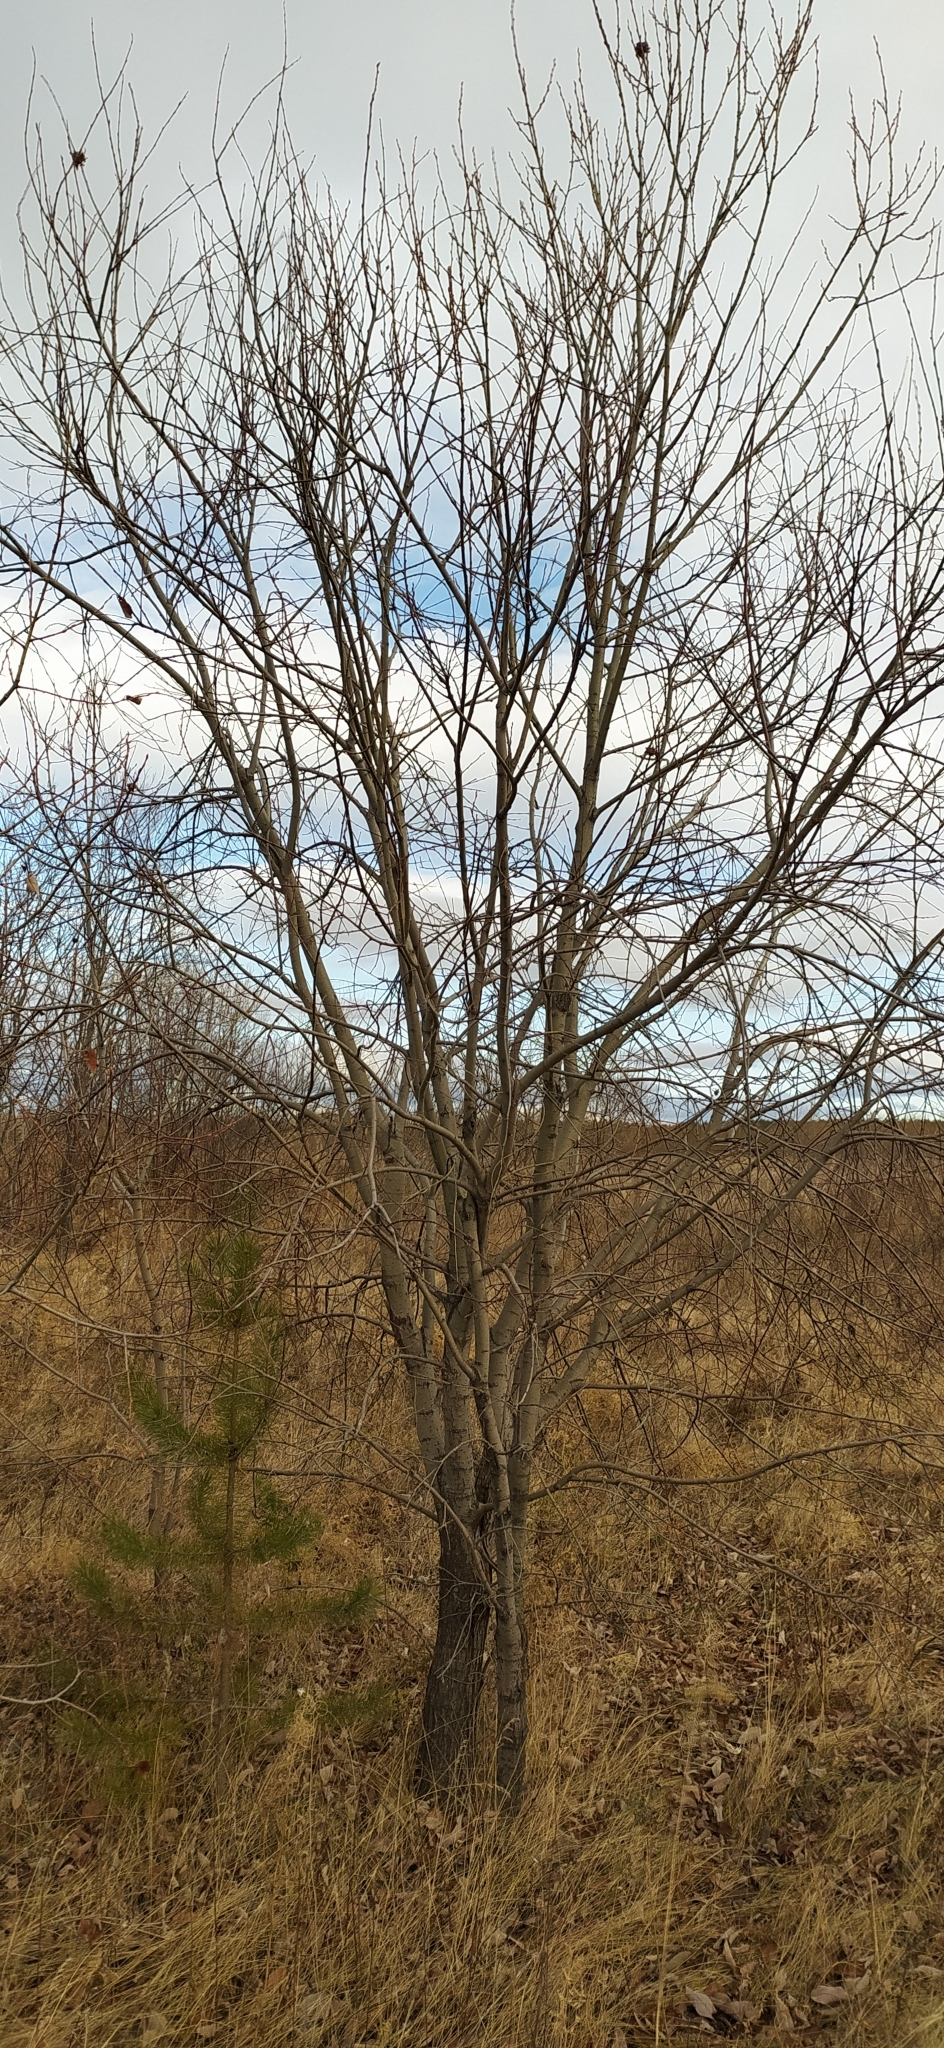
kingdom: Plantae
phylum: Tracheophyta
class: Magnoliopsida
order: Malpighiales
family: Salicaceae
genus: Salix
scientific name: Salix
